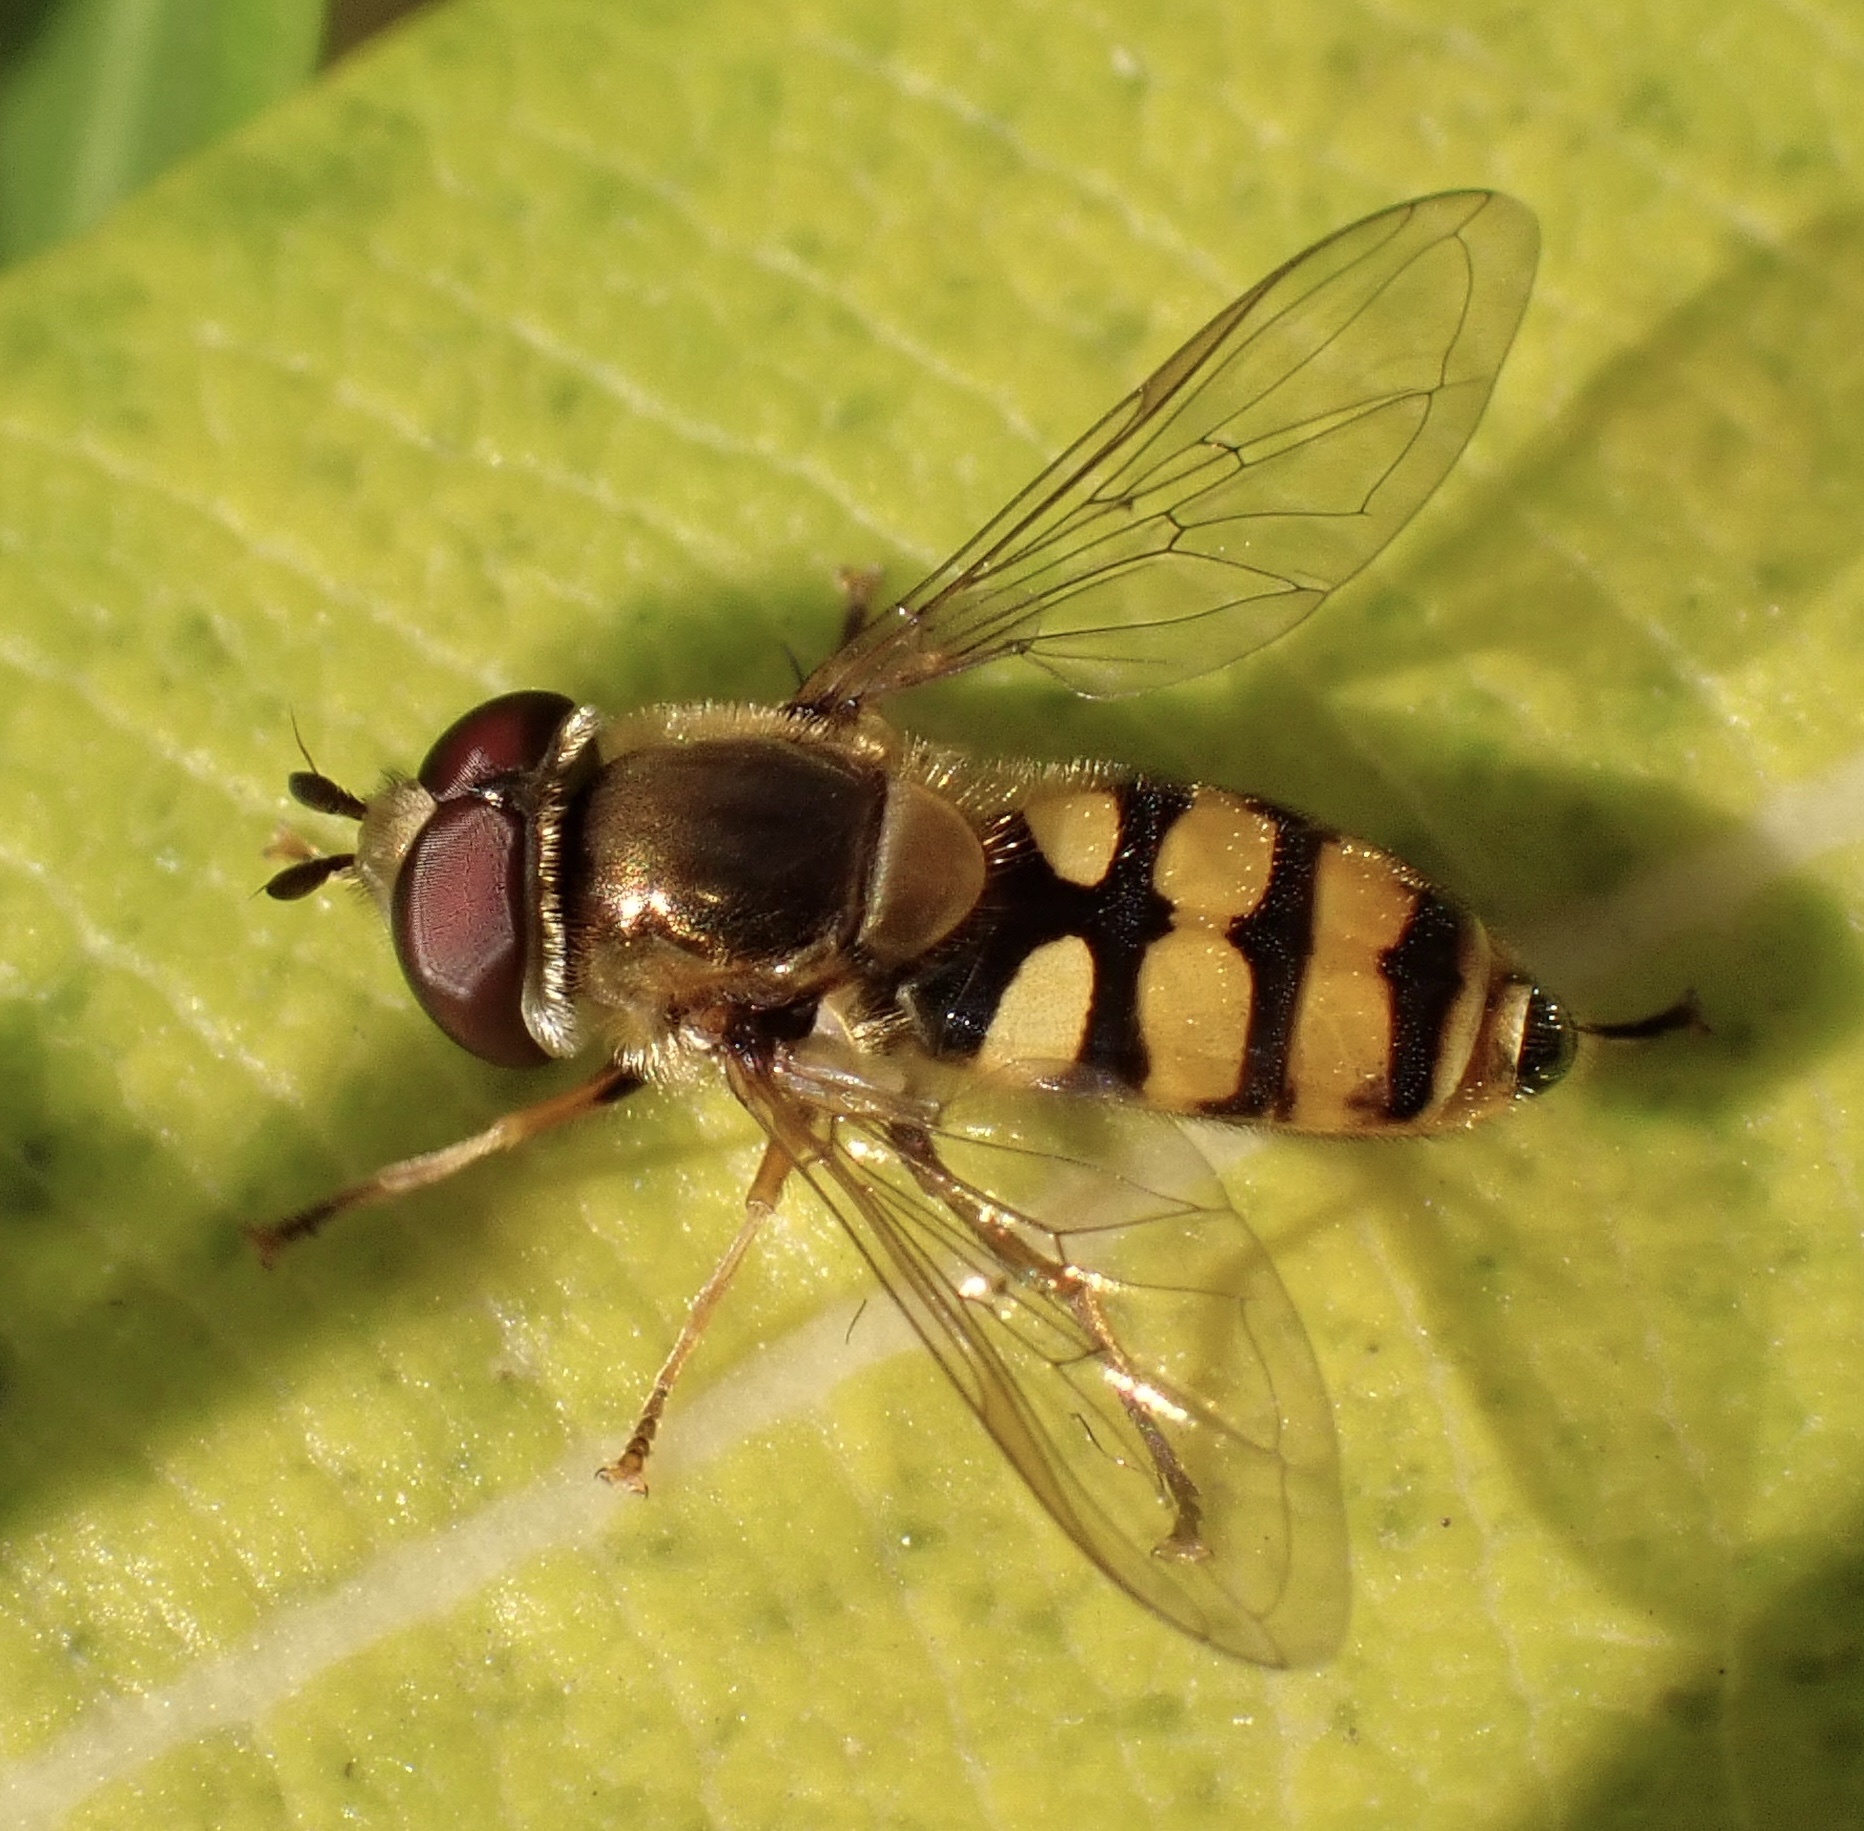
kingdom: Animalia
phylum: Arthropoda
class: Insecta
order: Diptera
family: Syrphidae
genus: Eupeodes
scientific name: Eupeodes corollae
